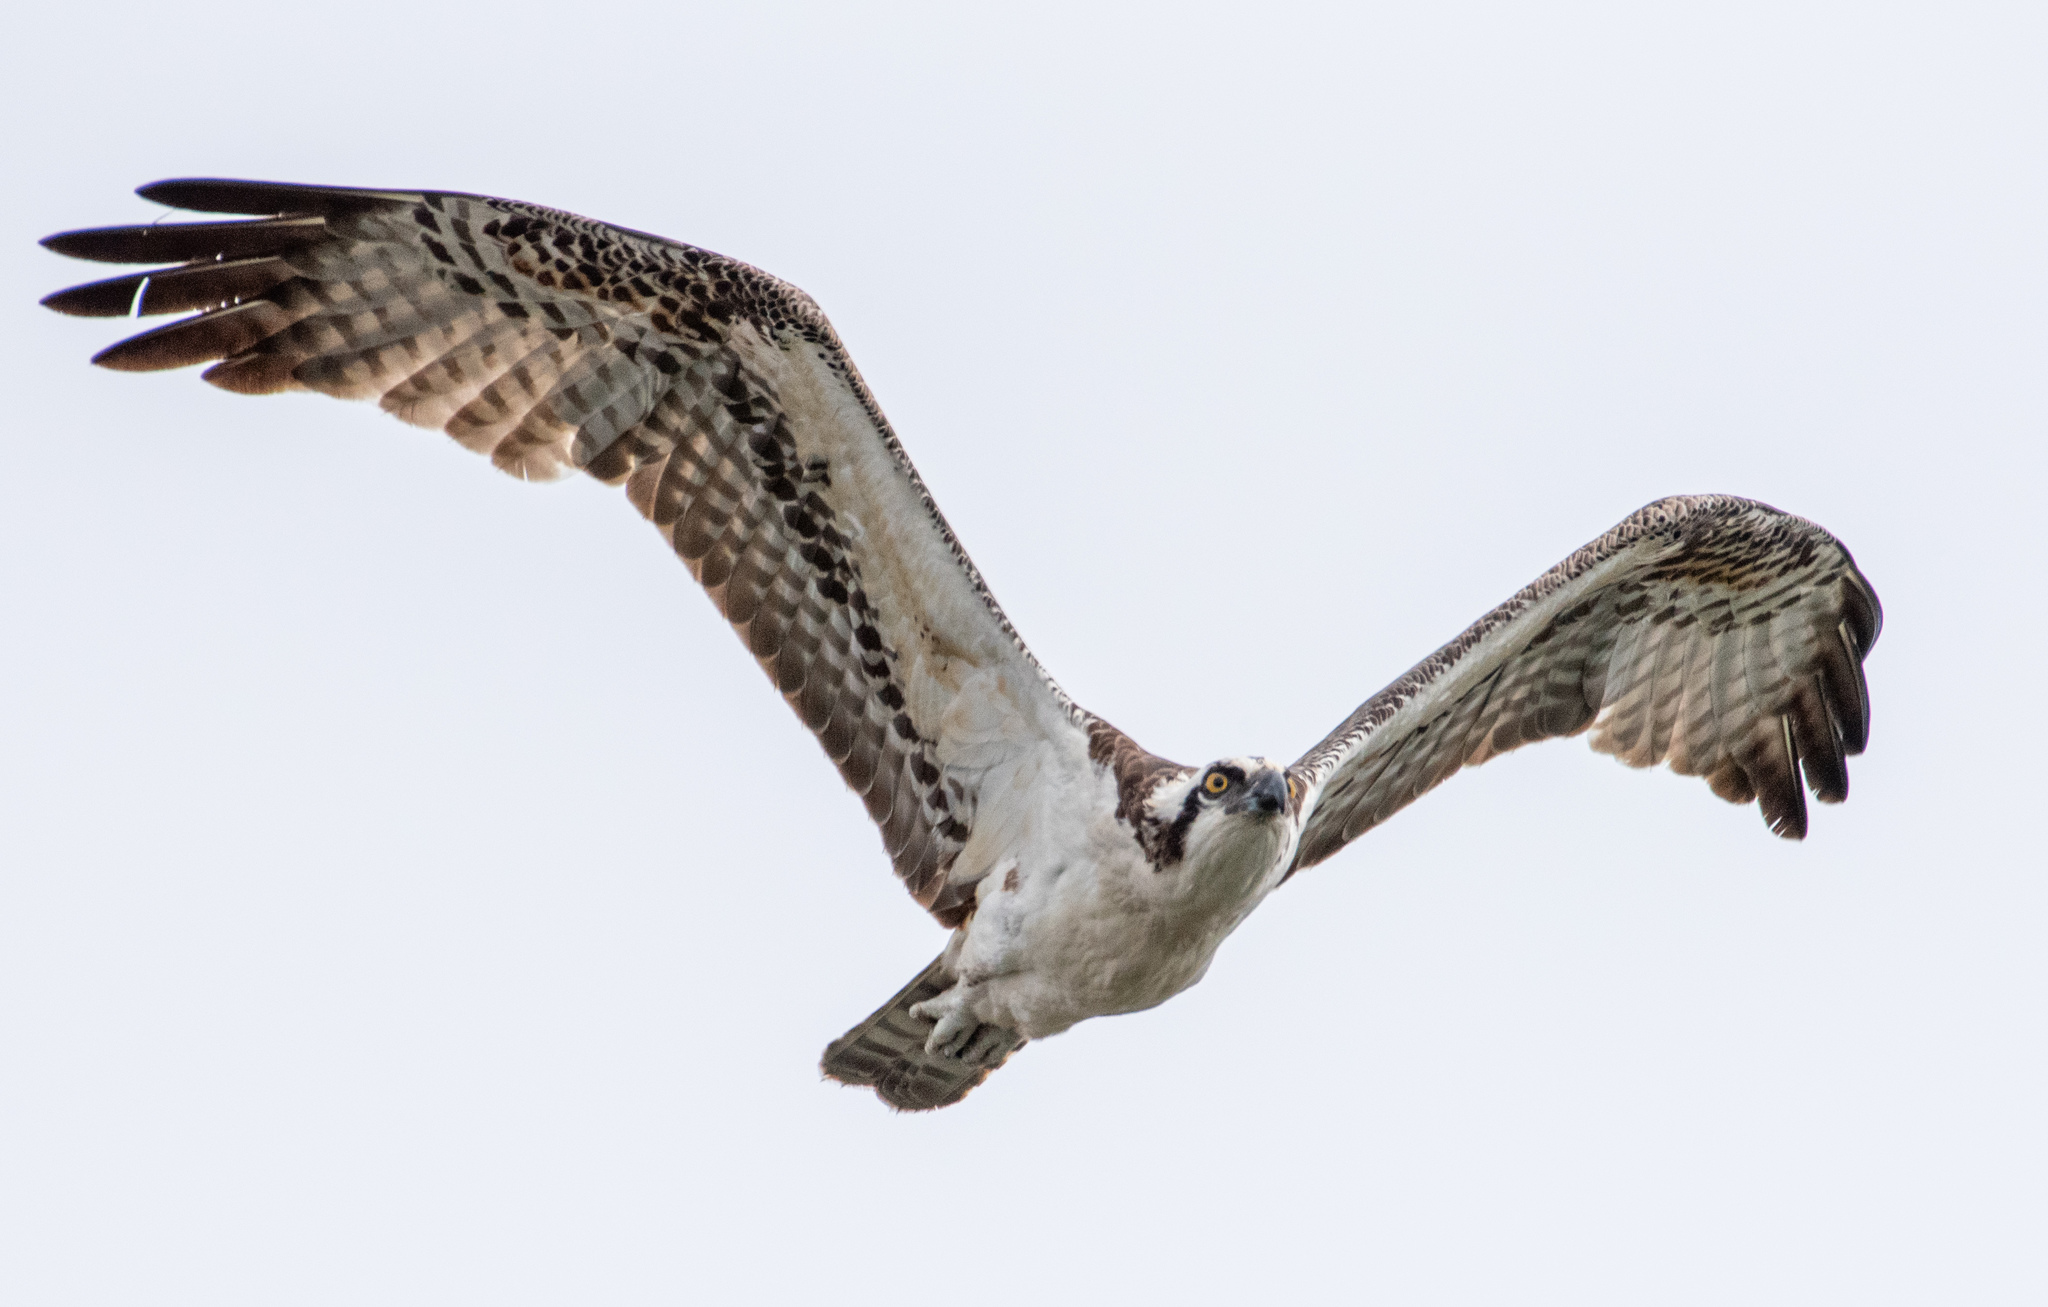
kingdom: Animalia
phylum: Chordata
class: Aves
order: Accipitriformes
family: Pandionidae
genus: Pandion
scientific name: Pandion haliaetus
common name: Osprey
